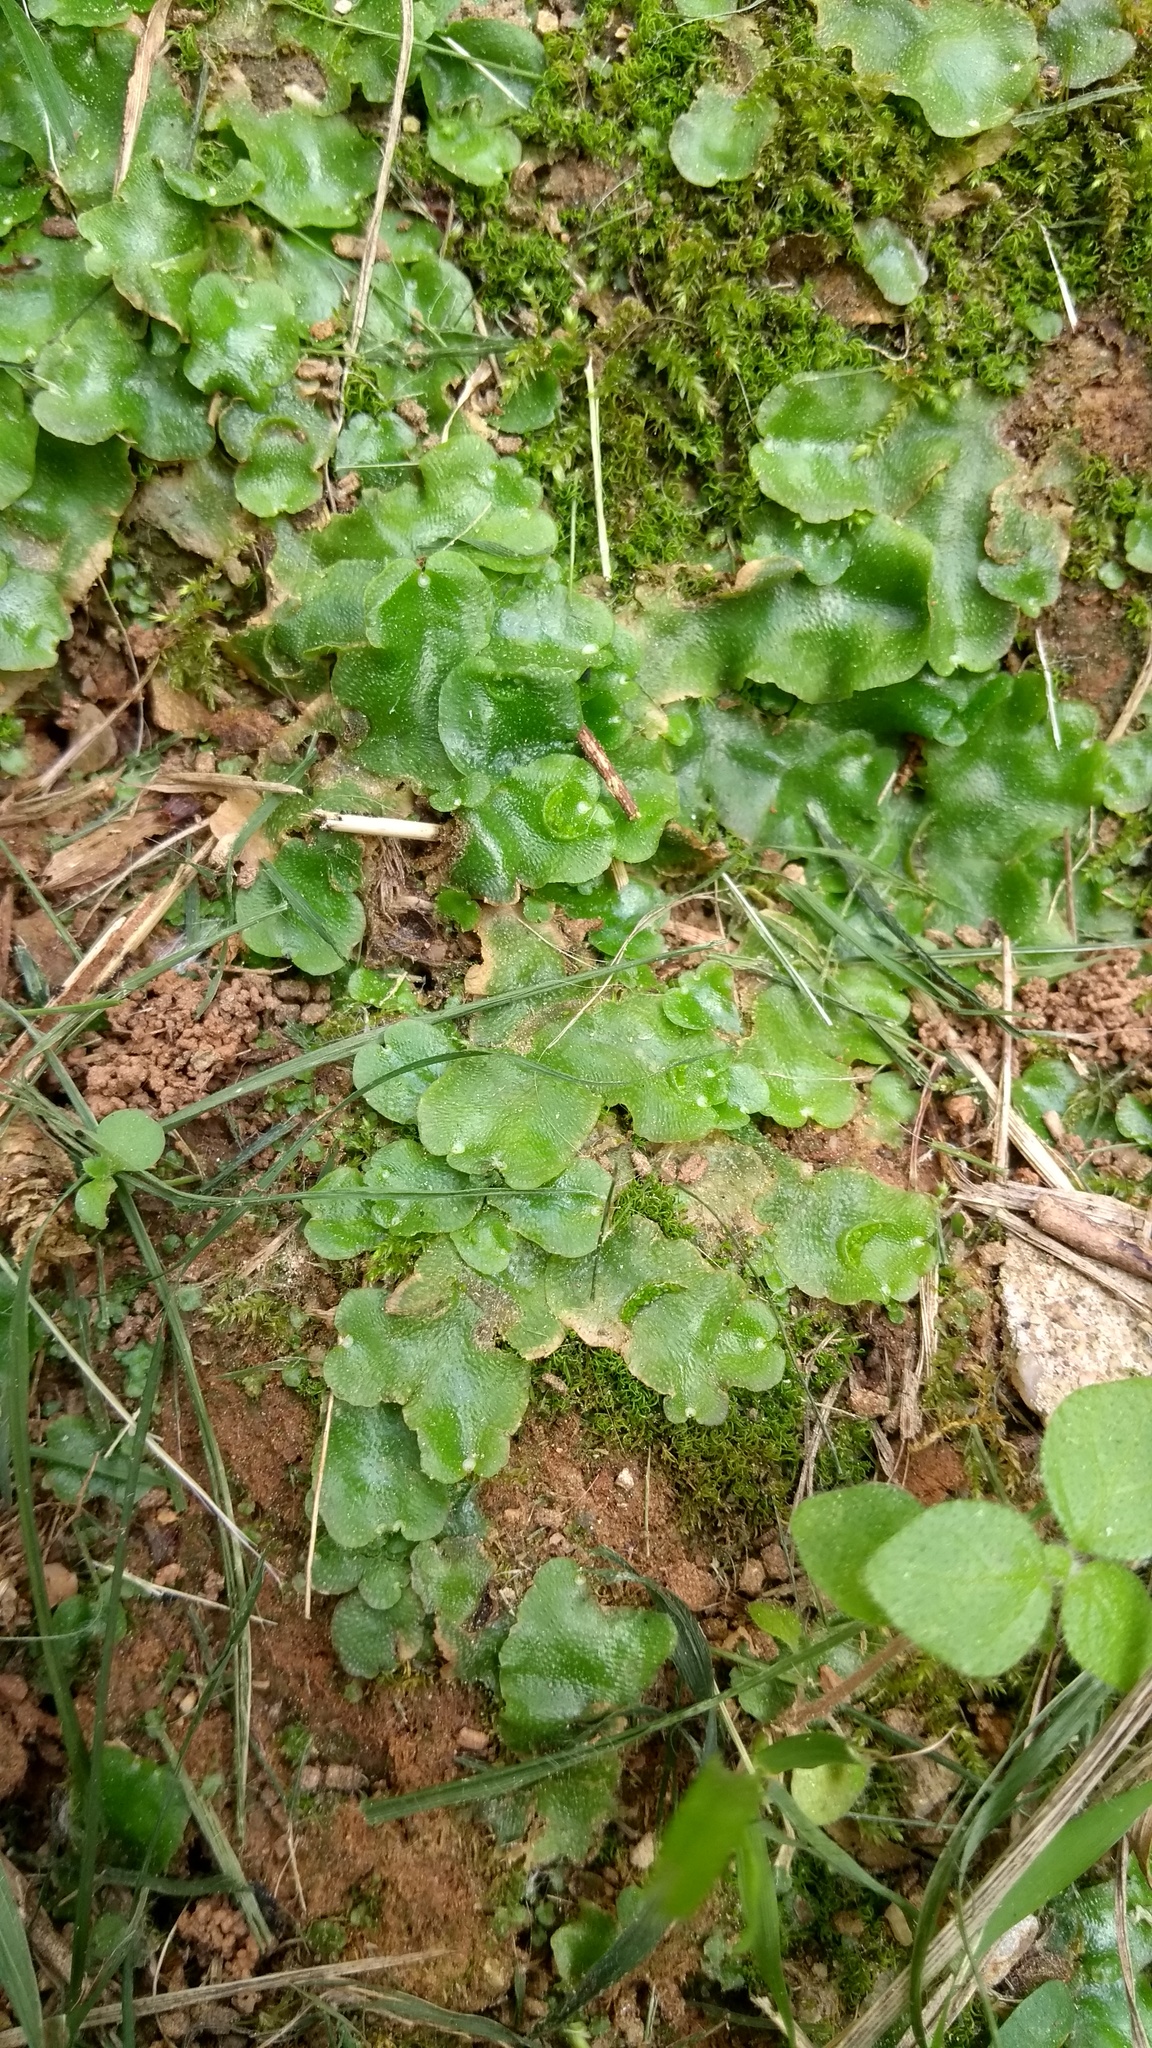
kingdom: Plantae
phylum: Marchantiophyta
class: Marchantiopsida
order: Lunulariales
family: Lunulariaceae
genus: Lunularia
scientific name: Lunularia cruciata
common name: Crescent-cup liverwort
